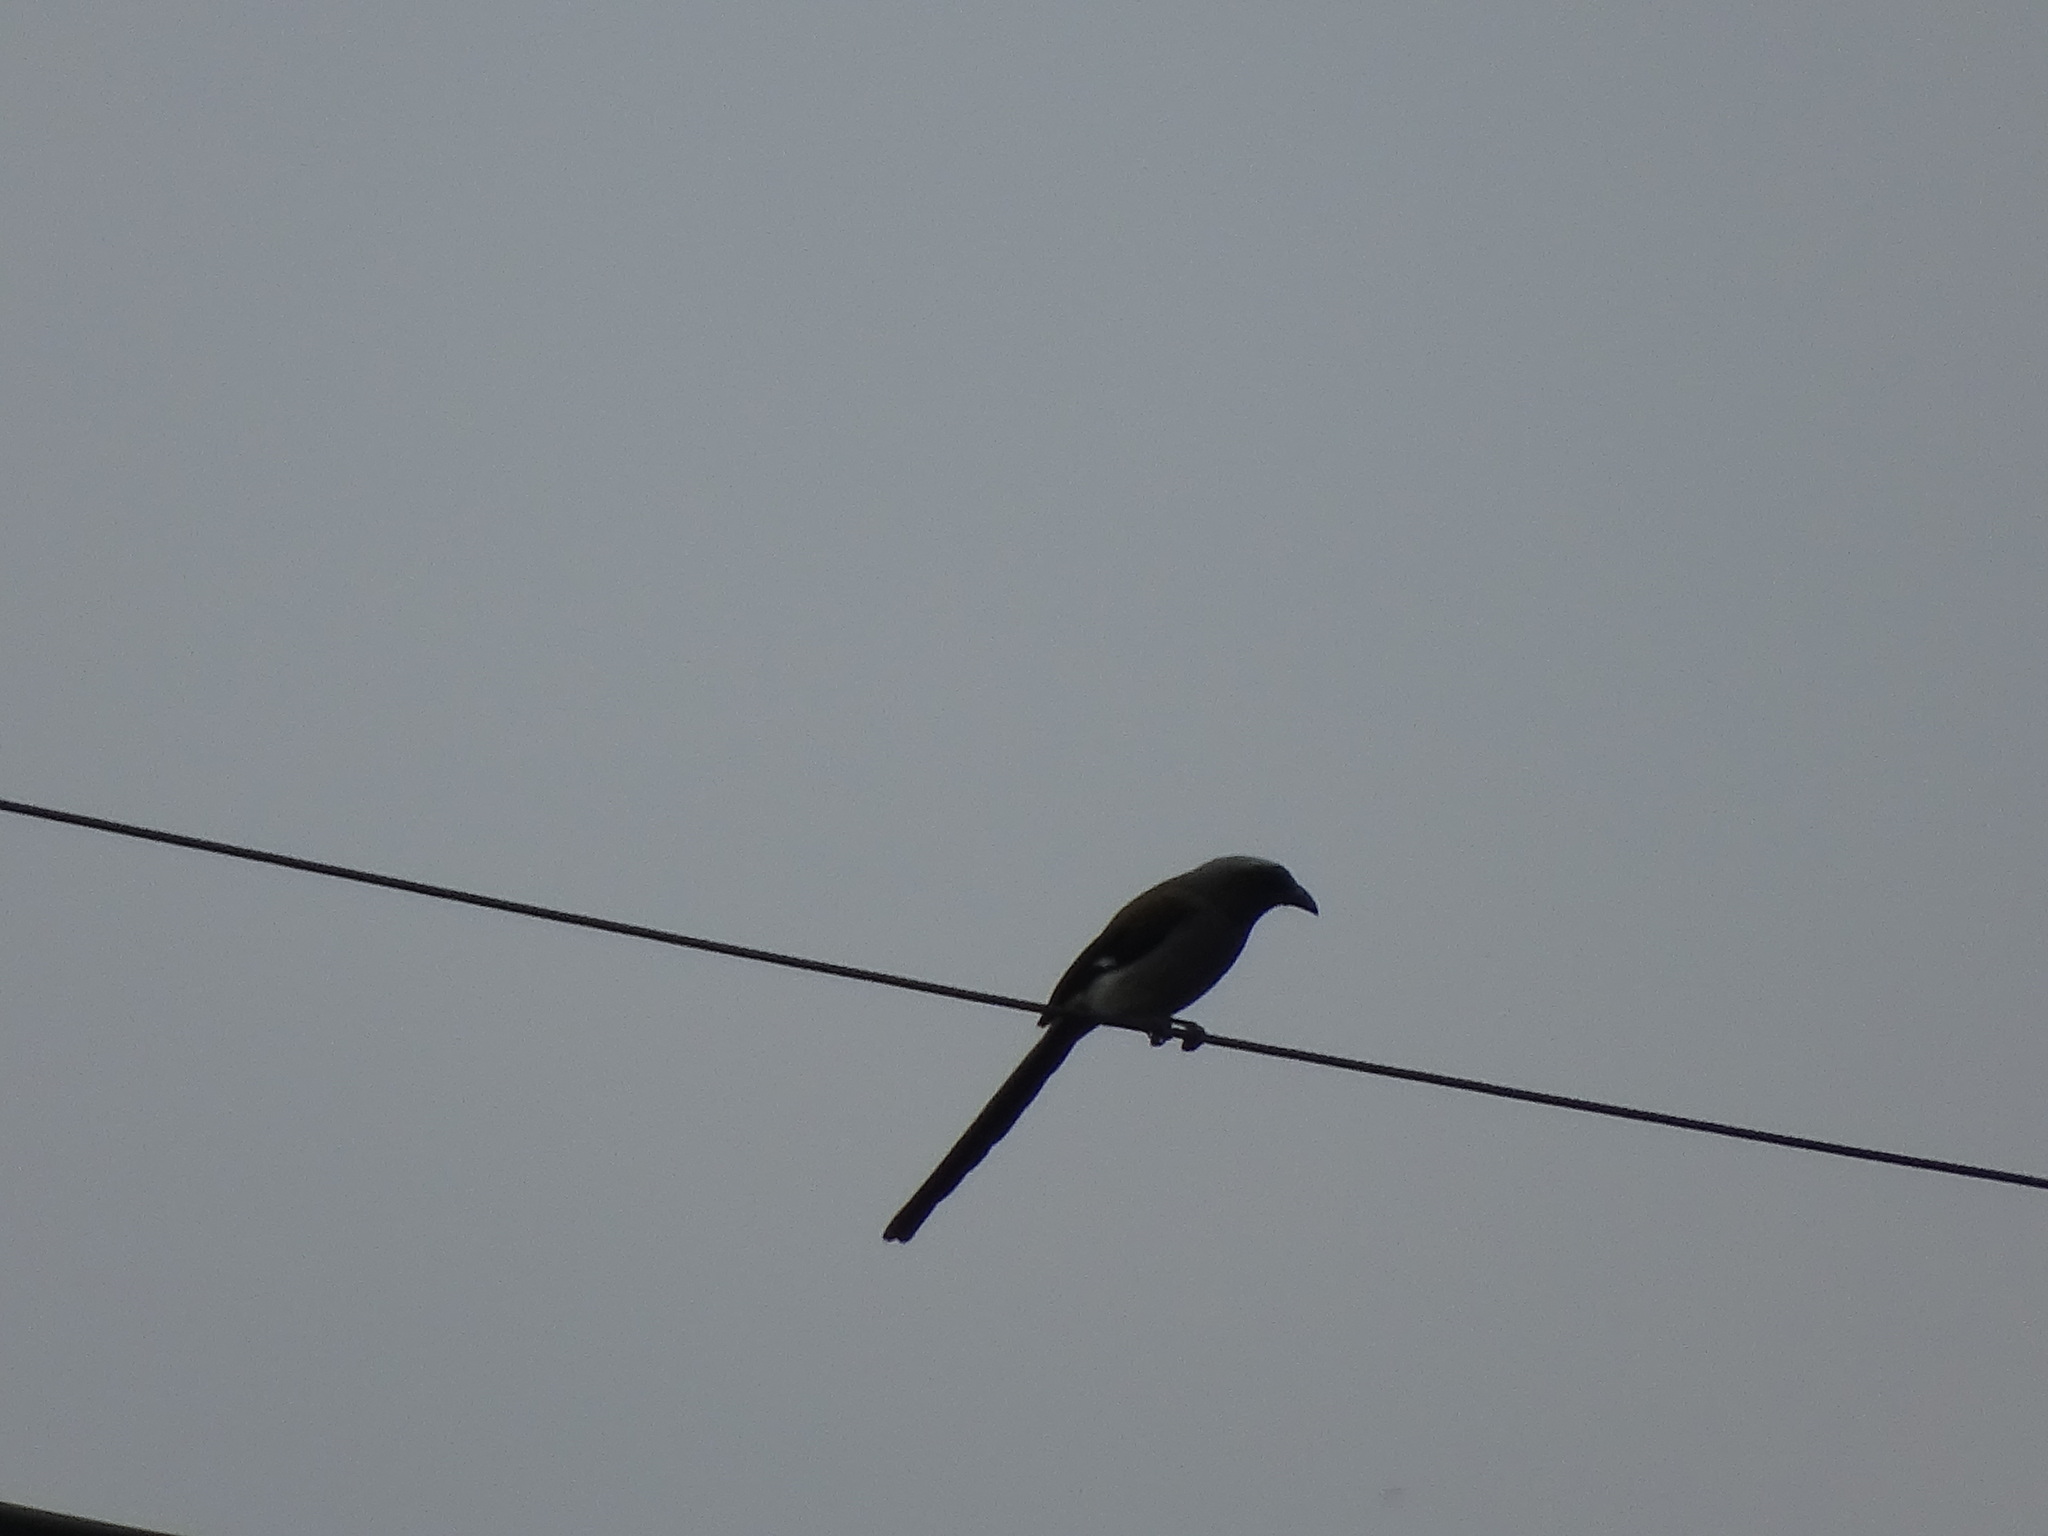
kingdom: Animalia
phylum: Chordata
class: Aves
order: Passeriformes
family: Corvidae
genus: Dendrocitta
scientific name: Dendrocitta formosae
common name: Grey treepie
